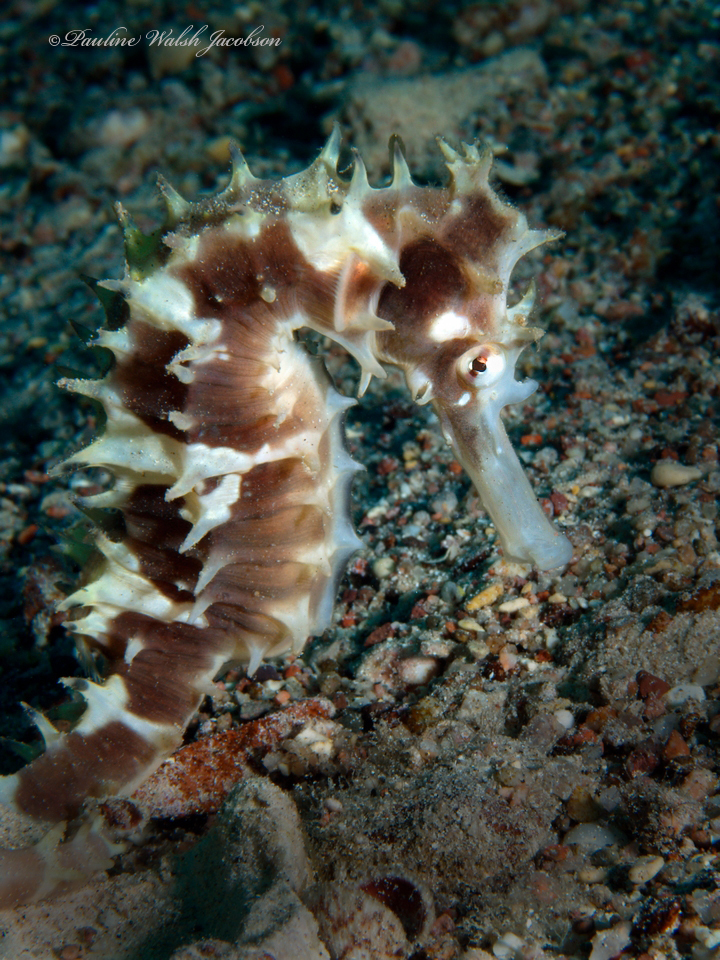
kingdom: Animalia
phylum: Chordata
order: Syngnathiformes
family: Syngnathidae
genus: Hippocampus
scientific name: Hippocampus jayakari
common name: Jayakar's seahorse
